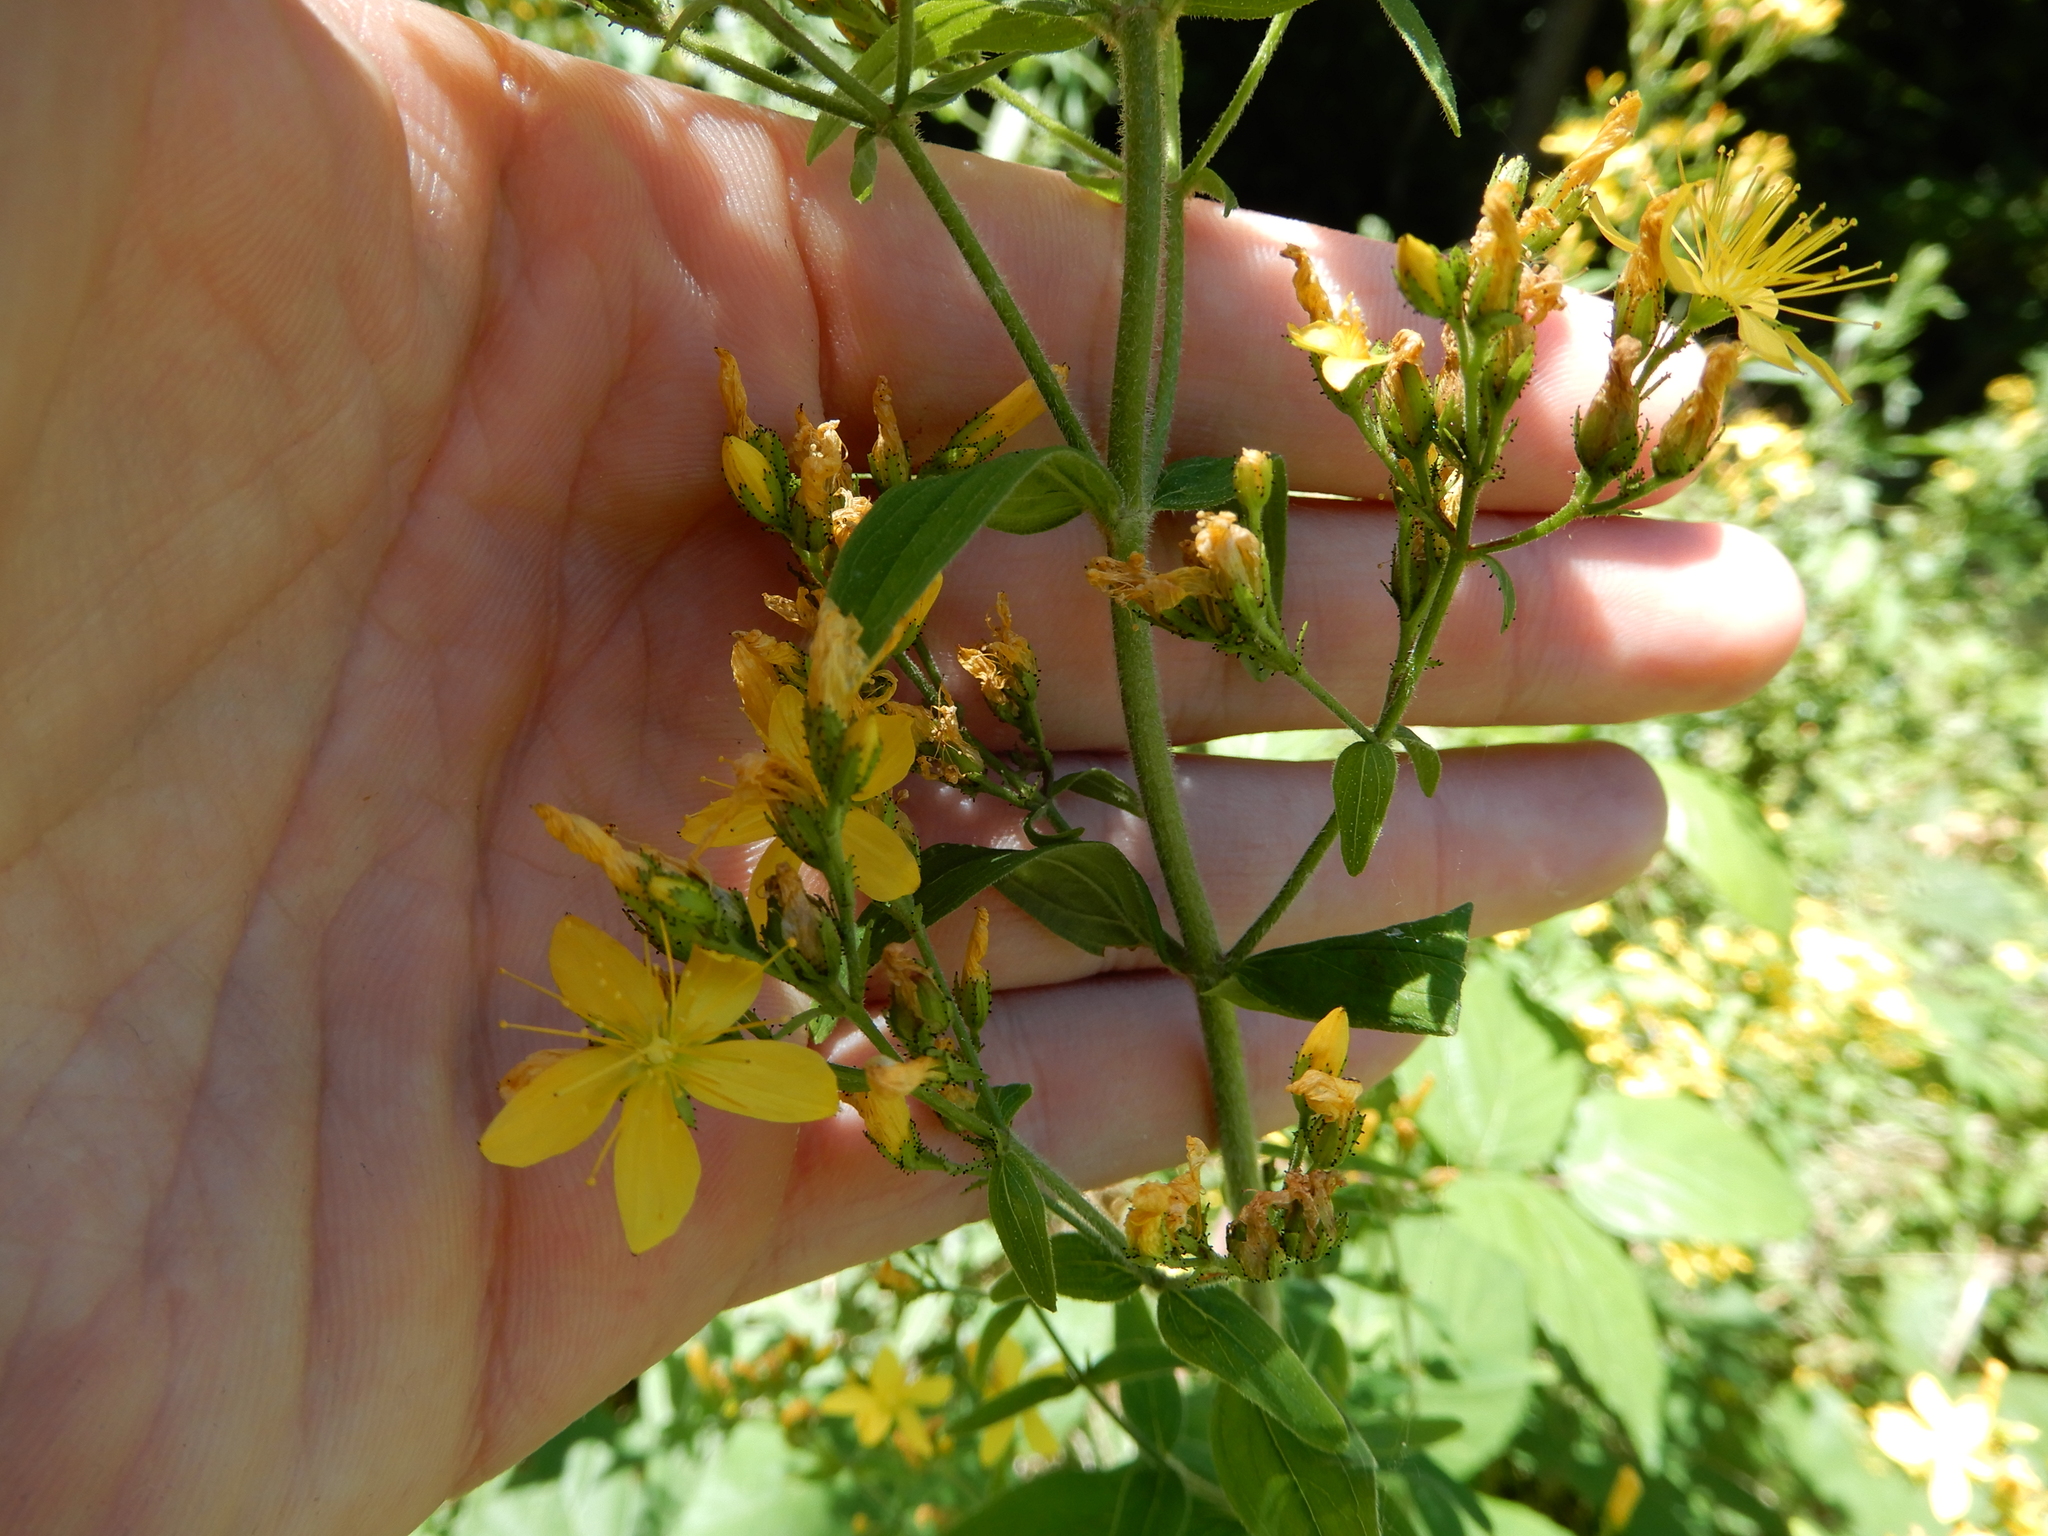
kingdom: Plantae
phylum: Tracheophyta
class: Magnoliopsida
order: Malpighiales
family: Hypericaceae
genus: Hypericum
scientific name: Hypericum hirsutum
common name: Hairy st. john's-wort
